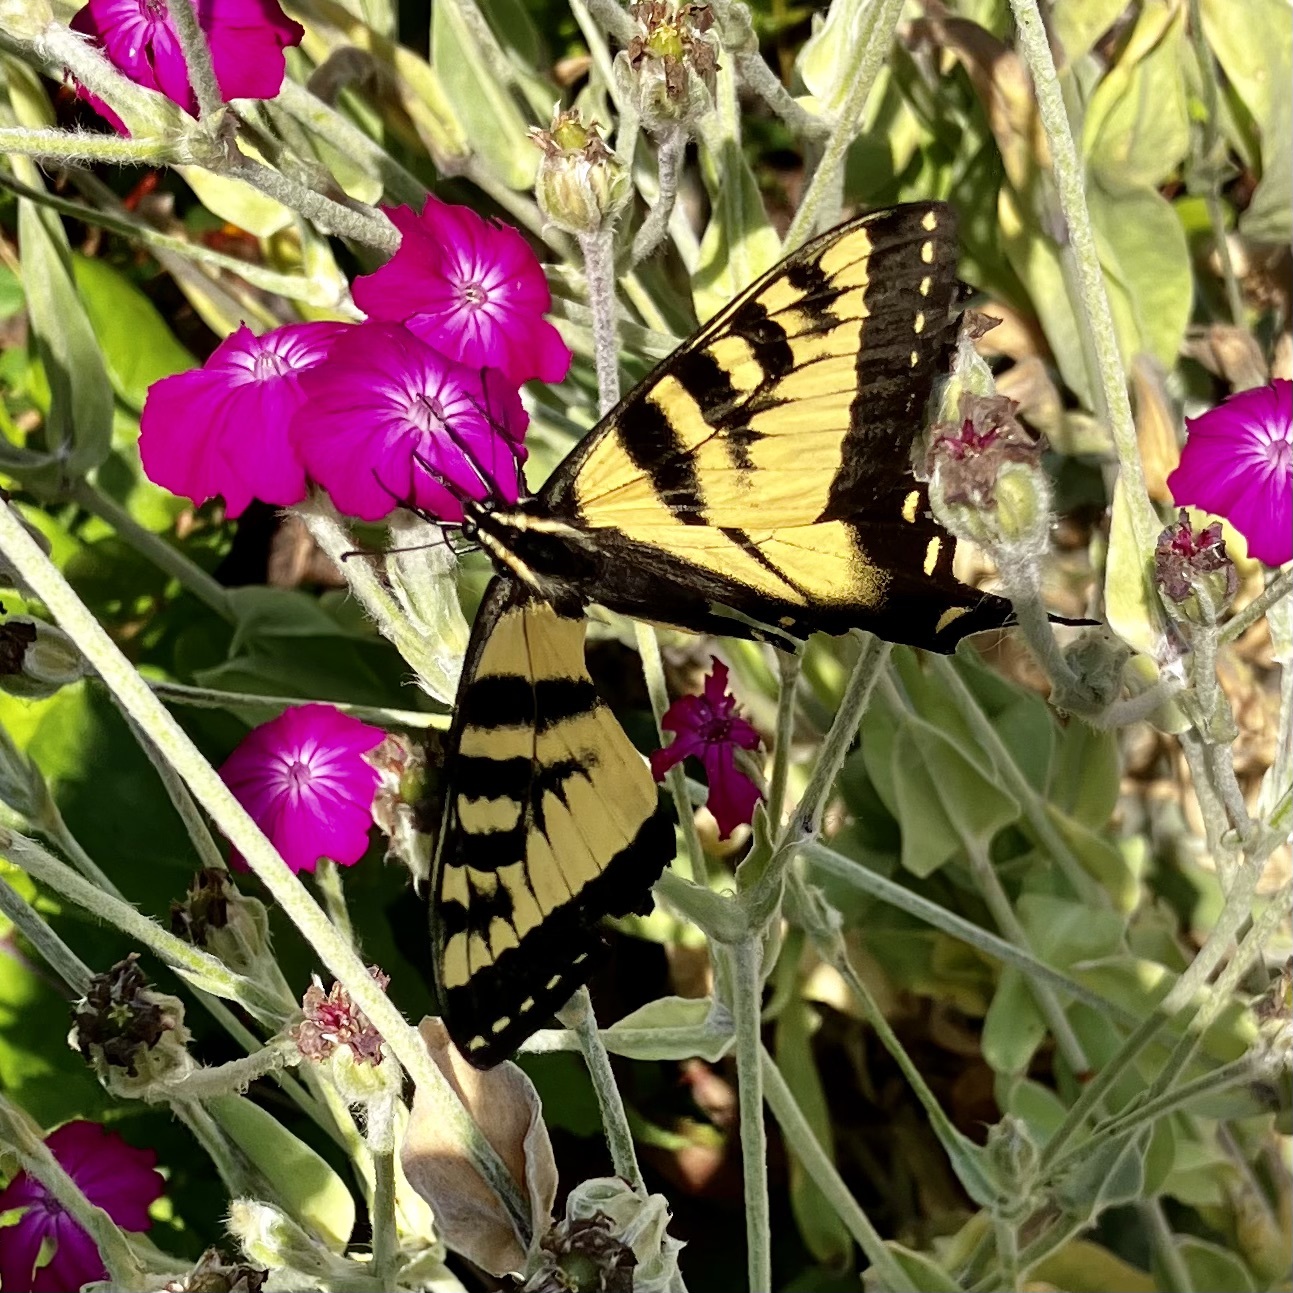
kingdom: Animalia
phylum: Arthropoda
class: Insecta
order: Lepidoptera
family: Papilionidae
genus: Papilio
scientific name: Papilio rutulus
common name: Western tiger swallowtail
